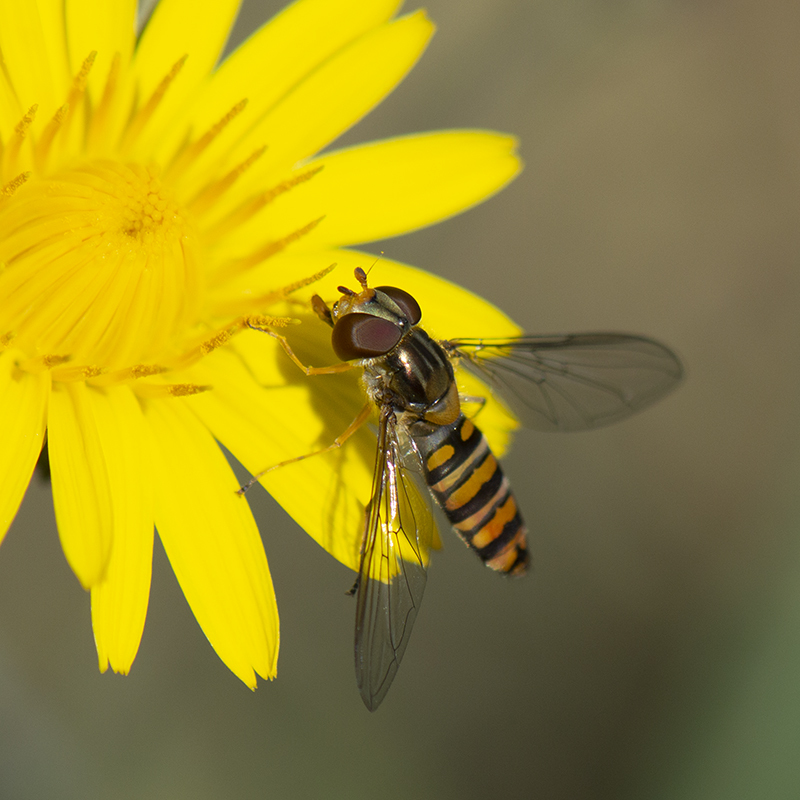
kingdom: Animalia
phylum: Arthropoda
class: Insecta
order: Diptera
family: Syrphidae
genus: Episyrphus
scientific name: Episyrphus balteatus
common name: Marmalade hoverfly
